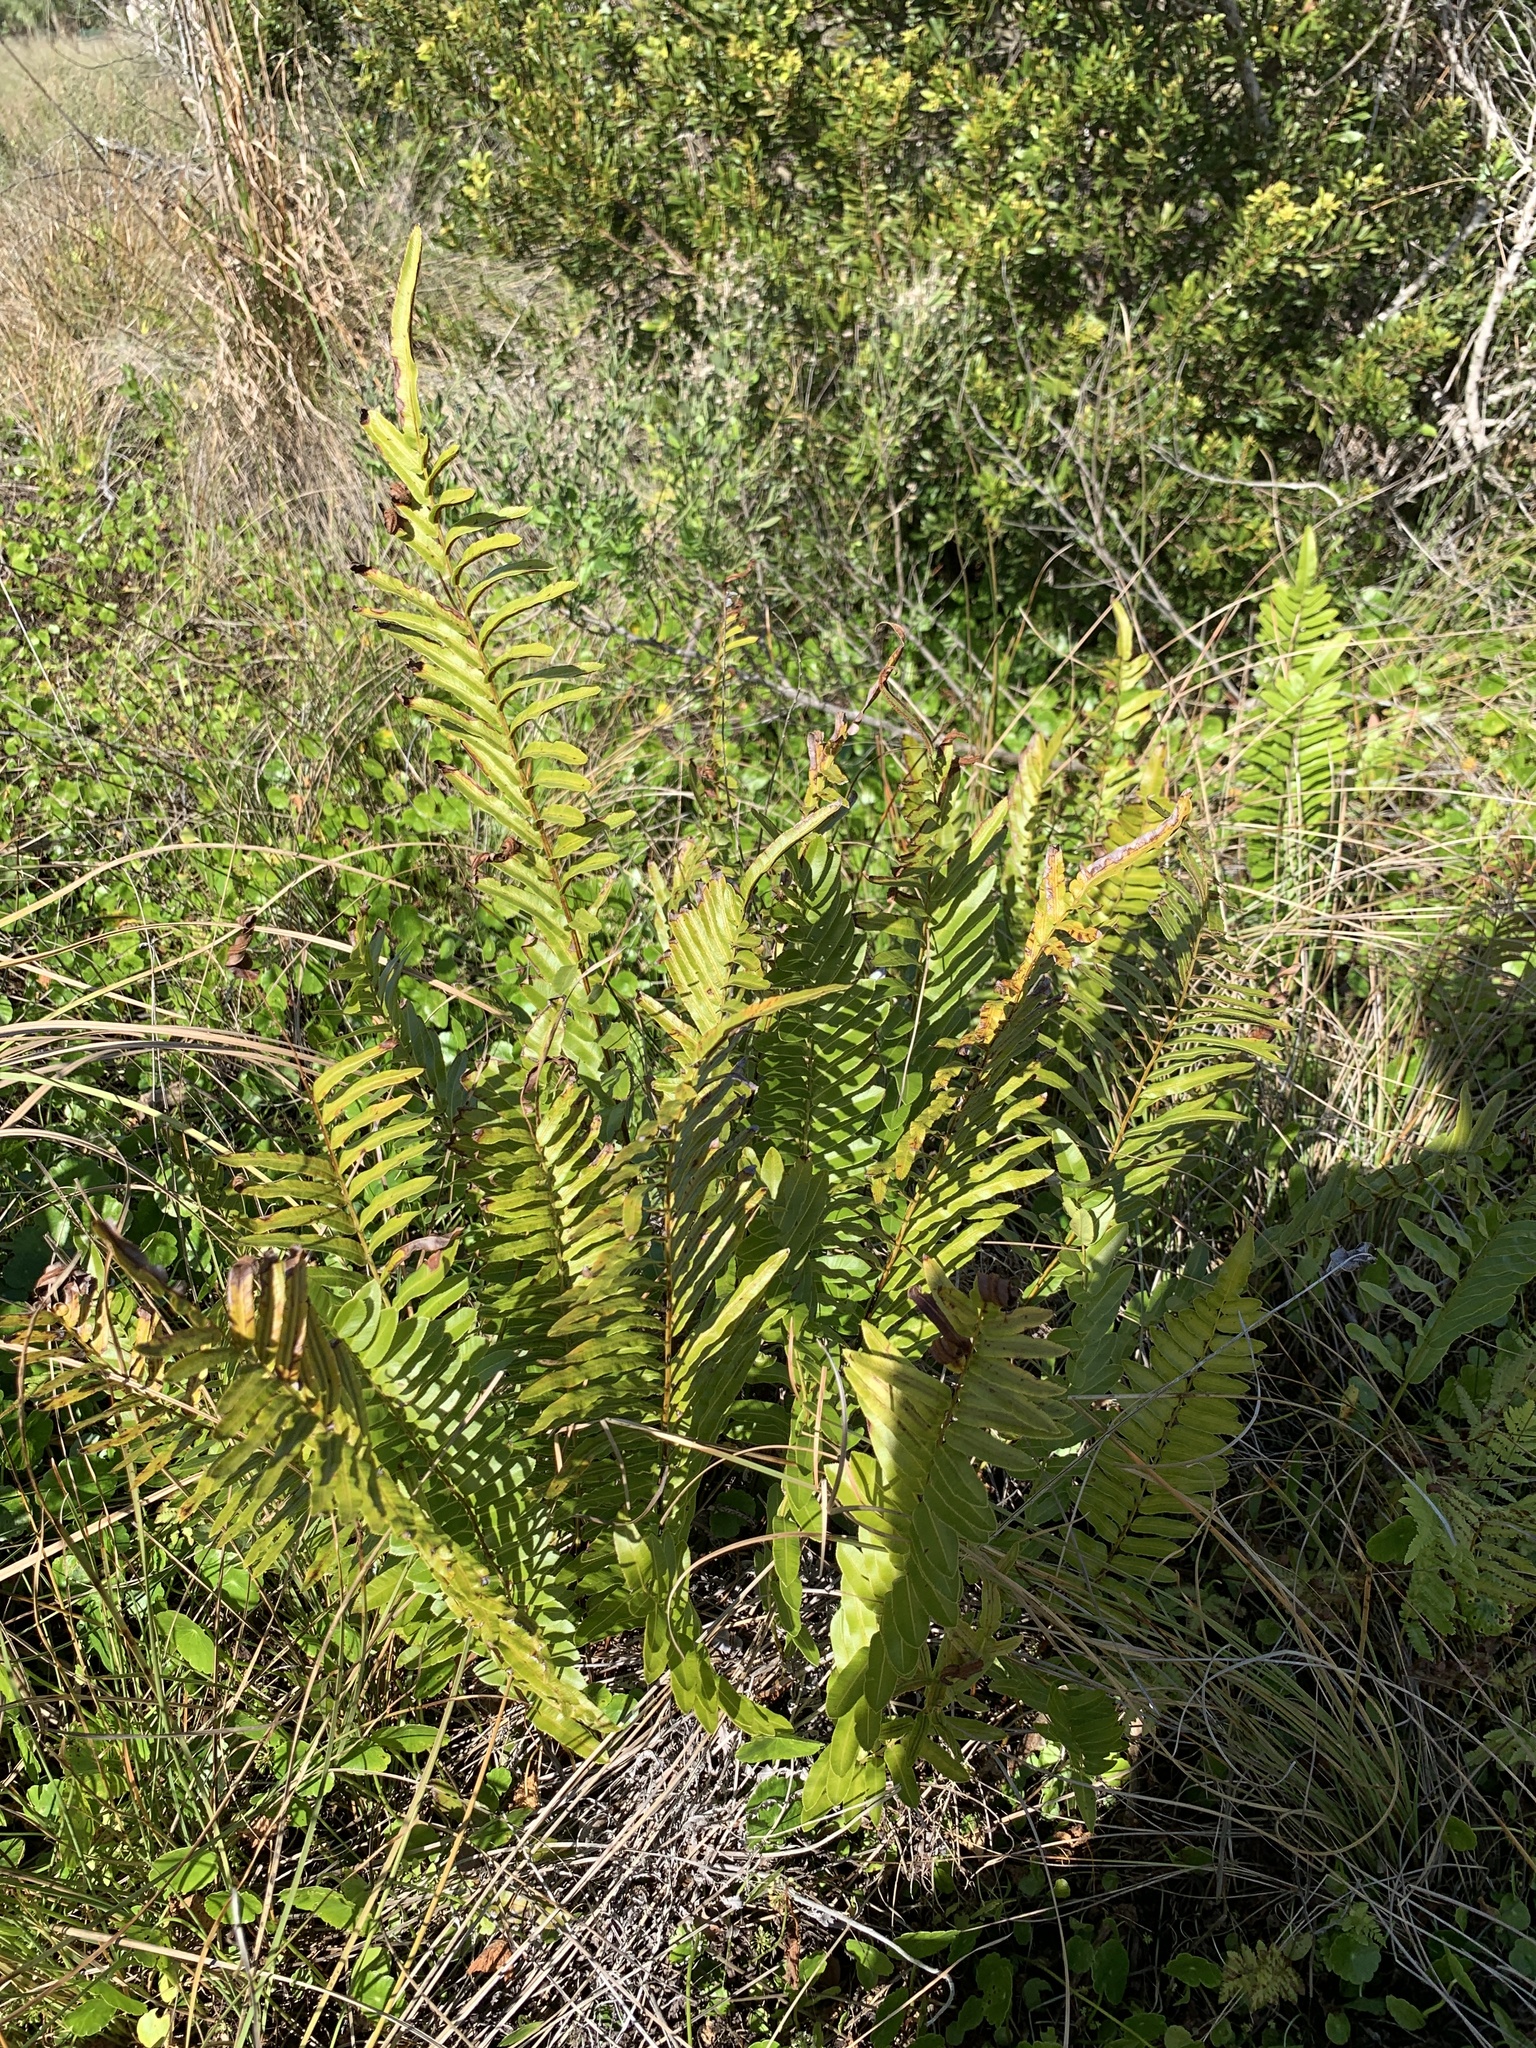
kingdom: Plantae
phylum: Tracheophyta
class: Polypodiopsida
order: Polypodiales
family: Blechnaceae
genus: Telmatoblechnum
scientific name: Telmatoblechnum serrulatum
